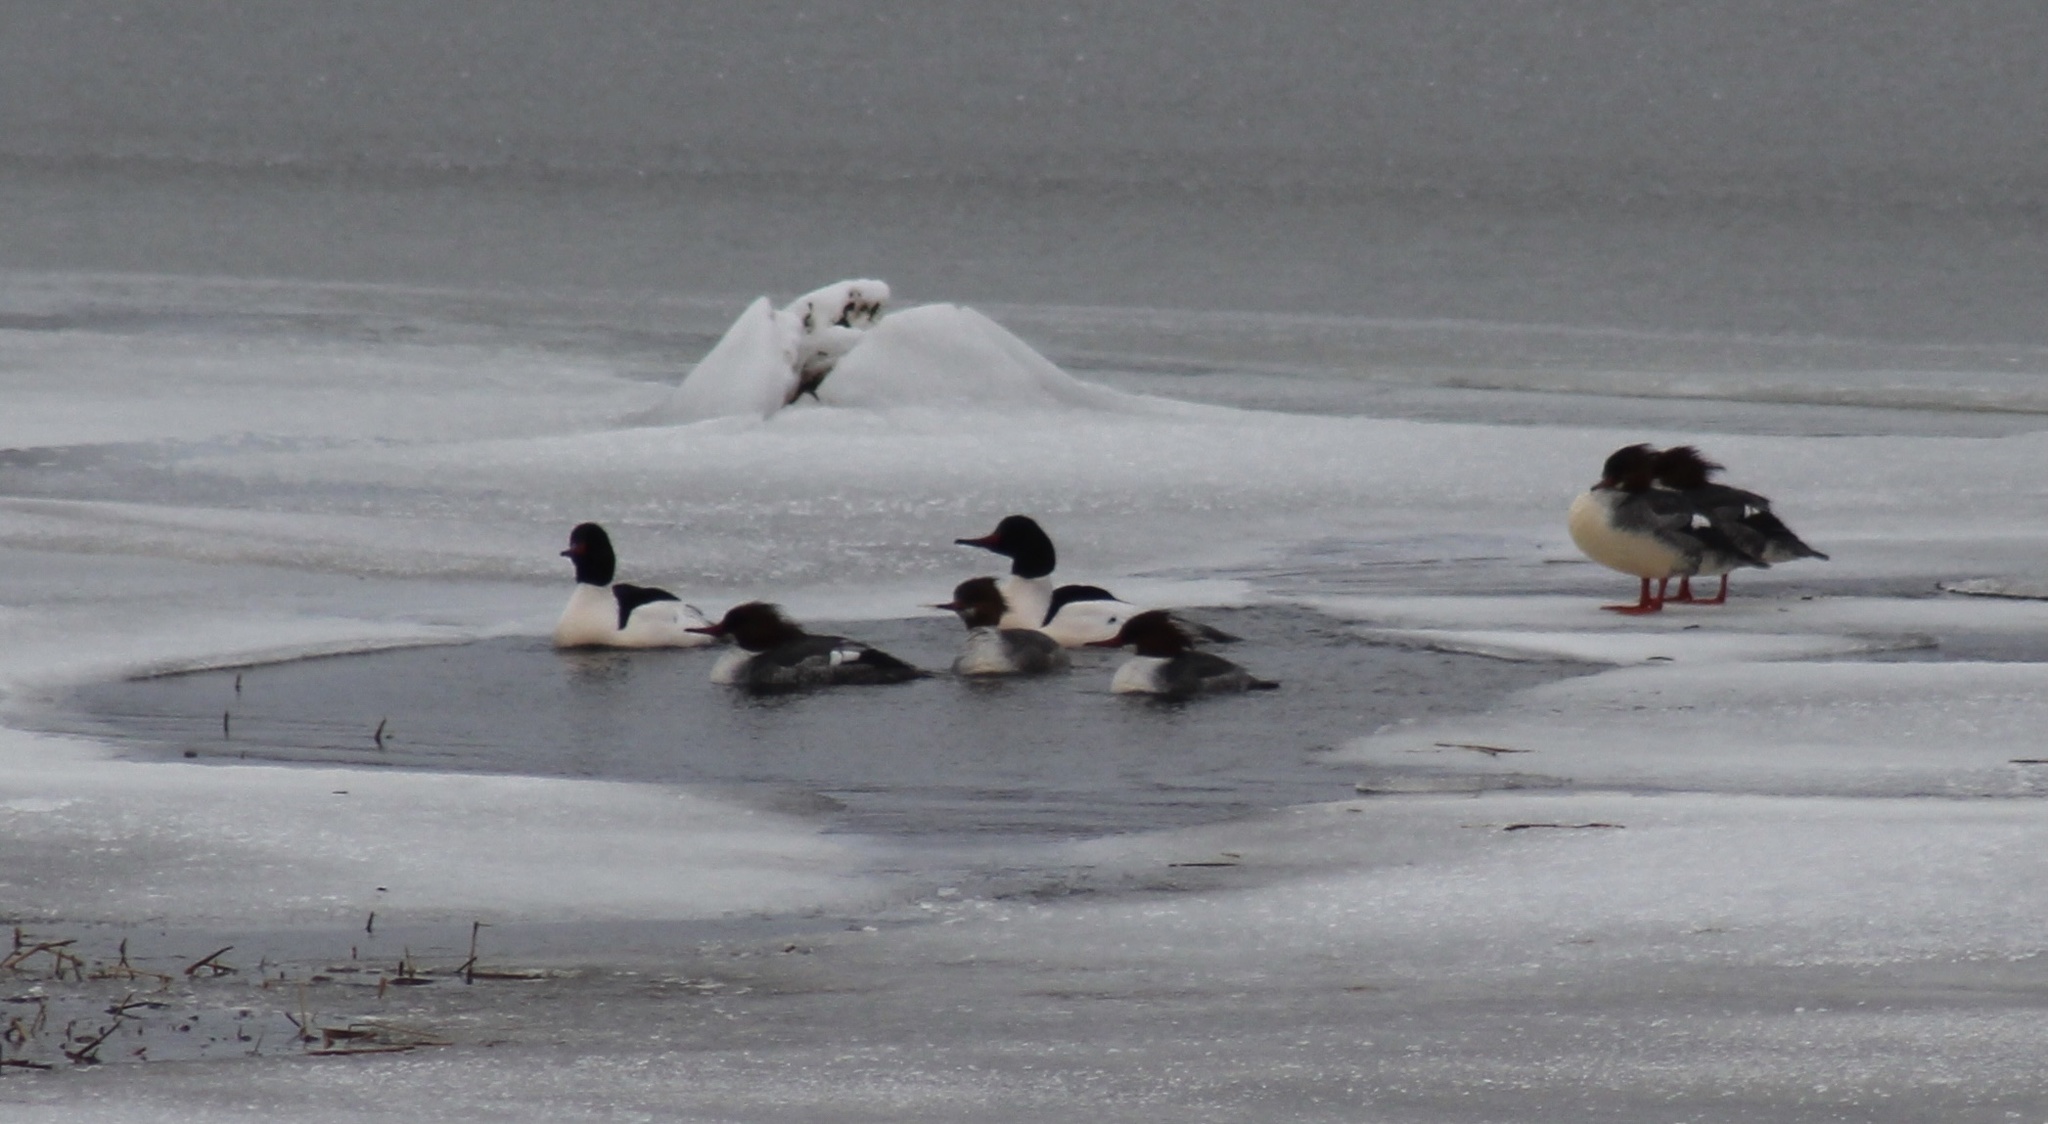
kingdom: Animalia
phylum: Chordata
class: Aves
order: Anseriformes
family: Anatidae
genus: Mergus
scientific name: Mergus merganser
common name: Common merganser
